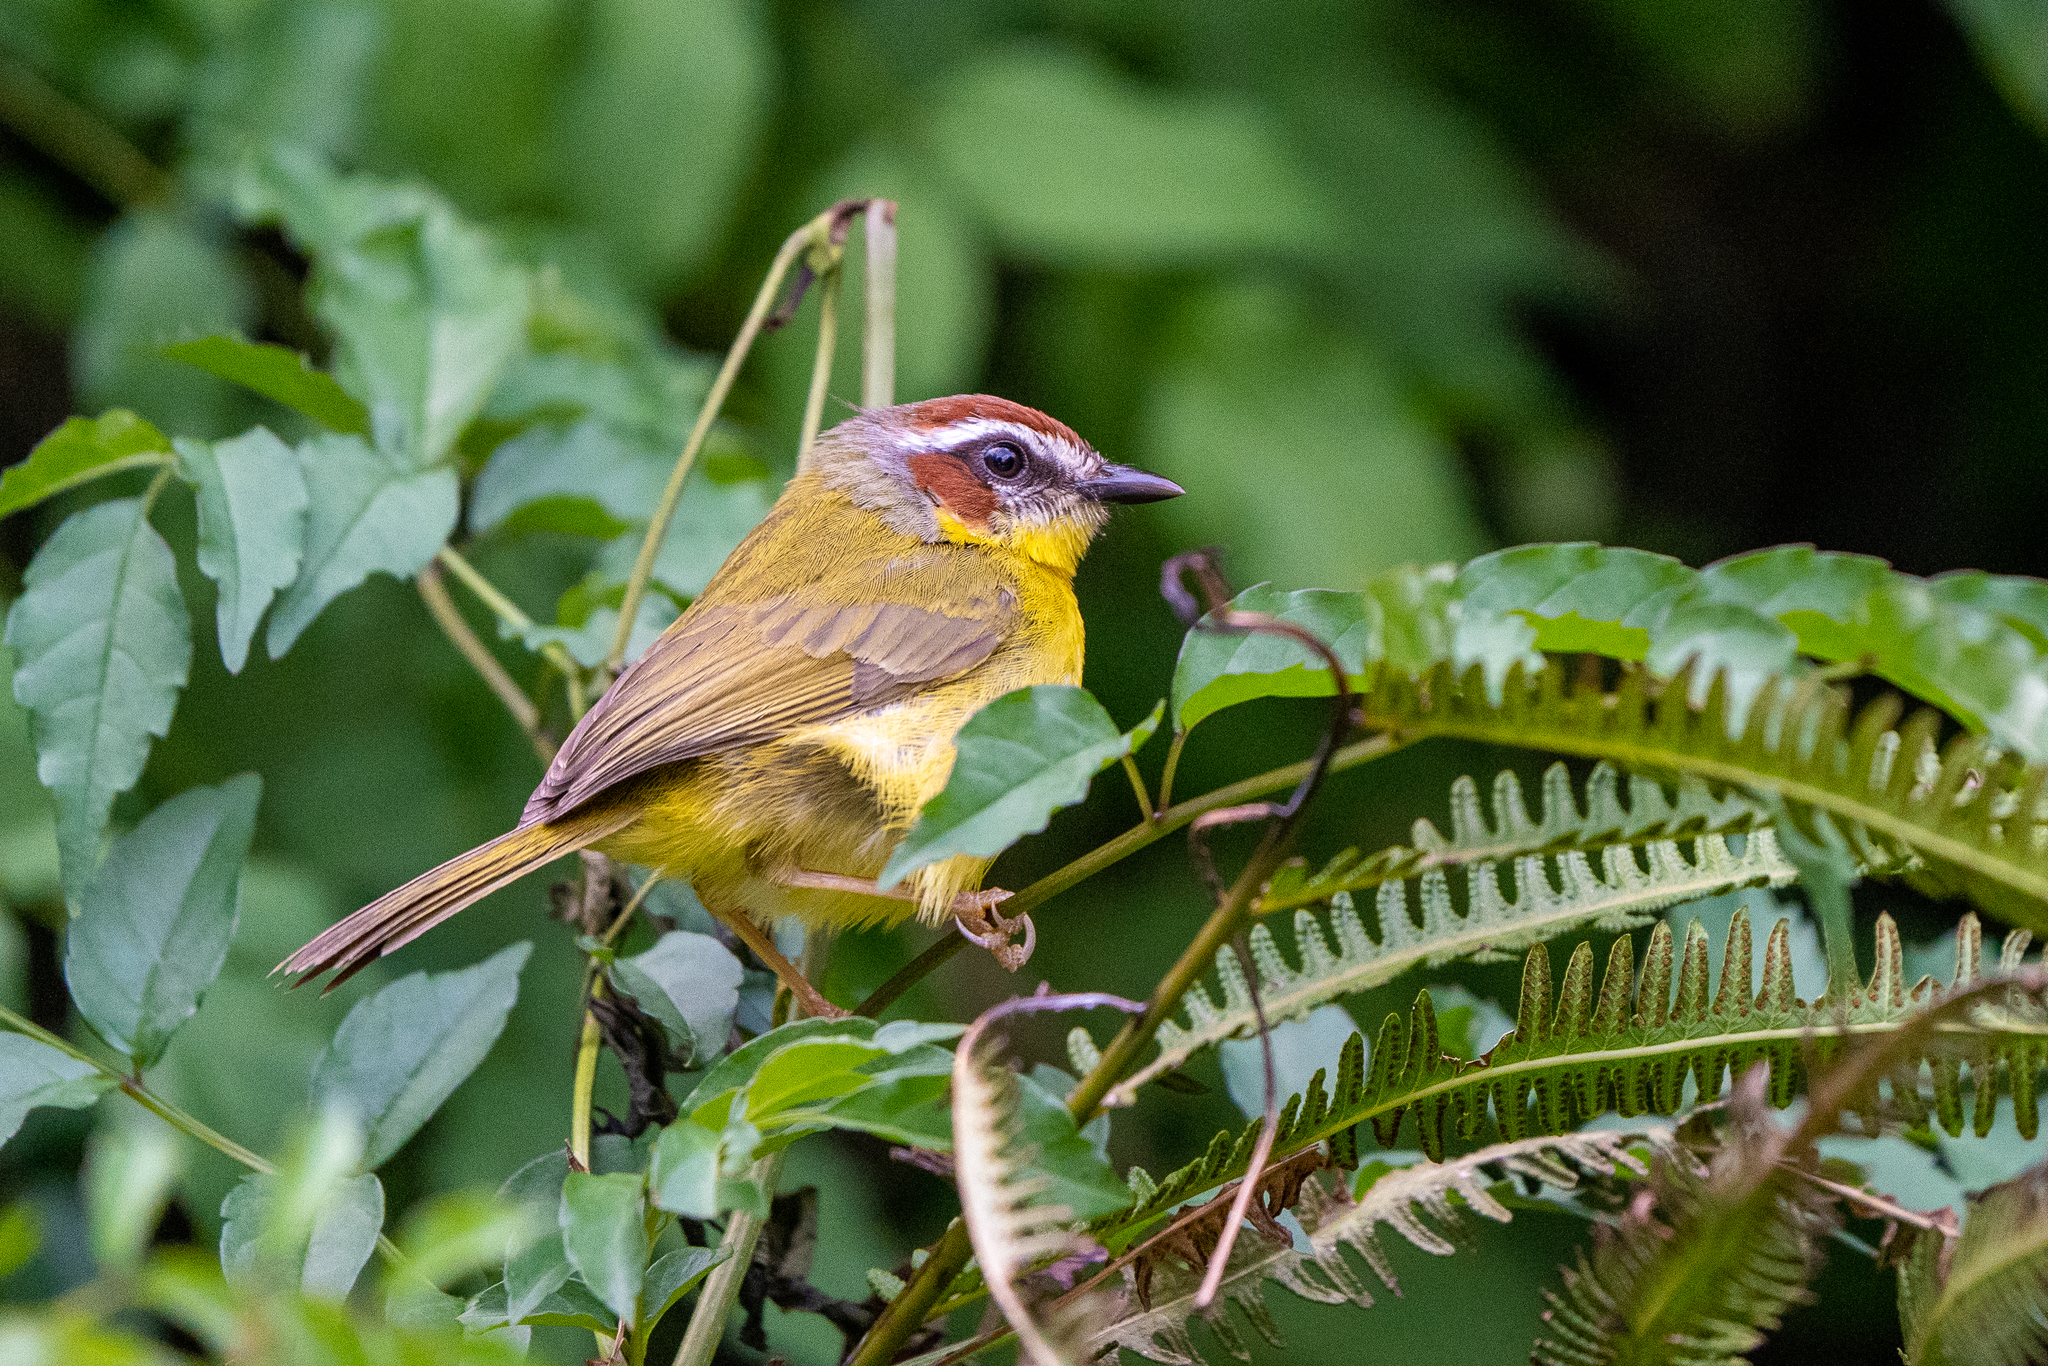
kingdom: Animalia
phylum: Chordata
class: Aves
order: Passeriformes
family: Parulidae
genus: Basileuterus
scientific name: Basileuterus rufifrons
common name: Rufous-capped warbler
